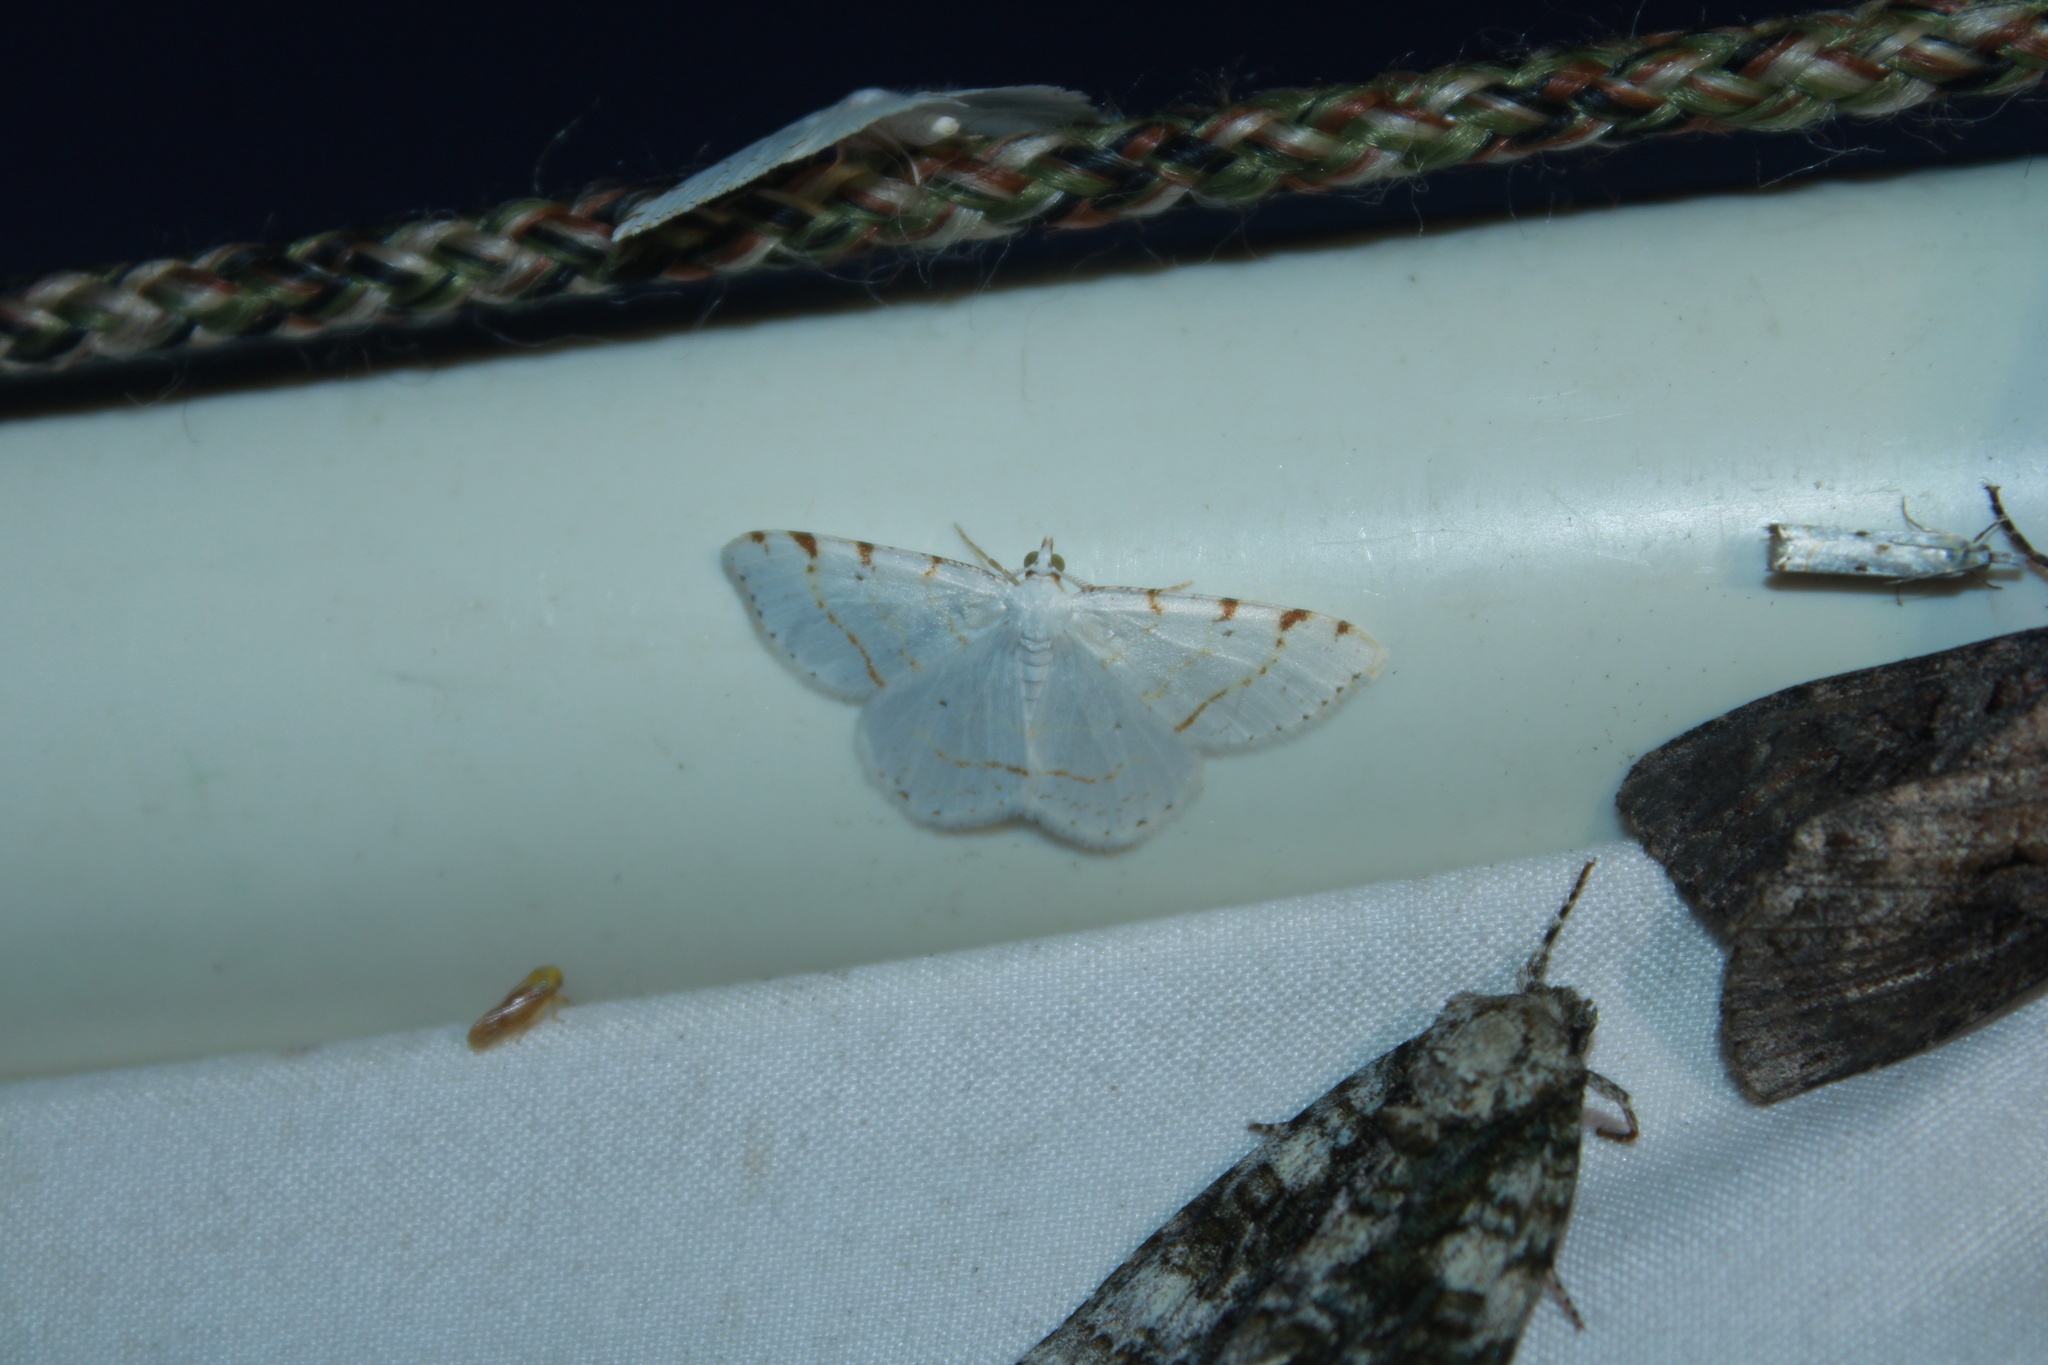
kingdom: Animalia
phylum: Arthropoda
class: Insecta
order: Lepidoptera
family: Geometridae
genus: Macaria
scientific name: Macaria pustularia
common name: Lesser maple spanworm moth
